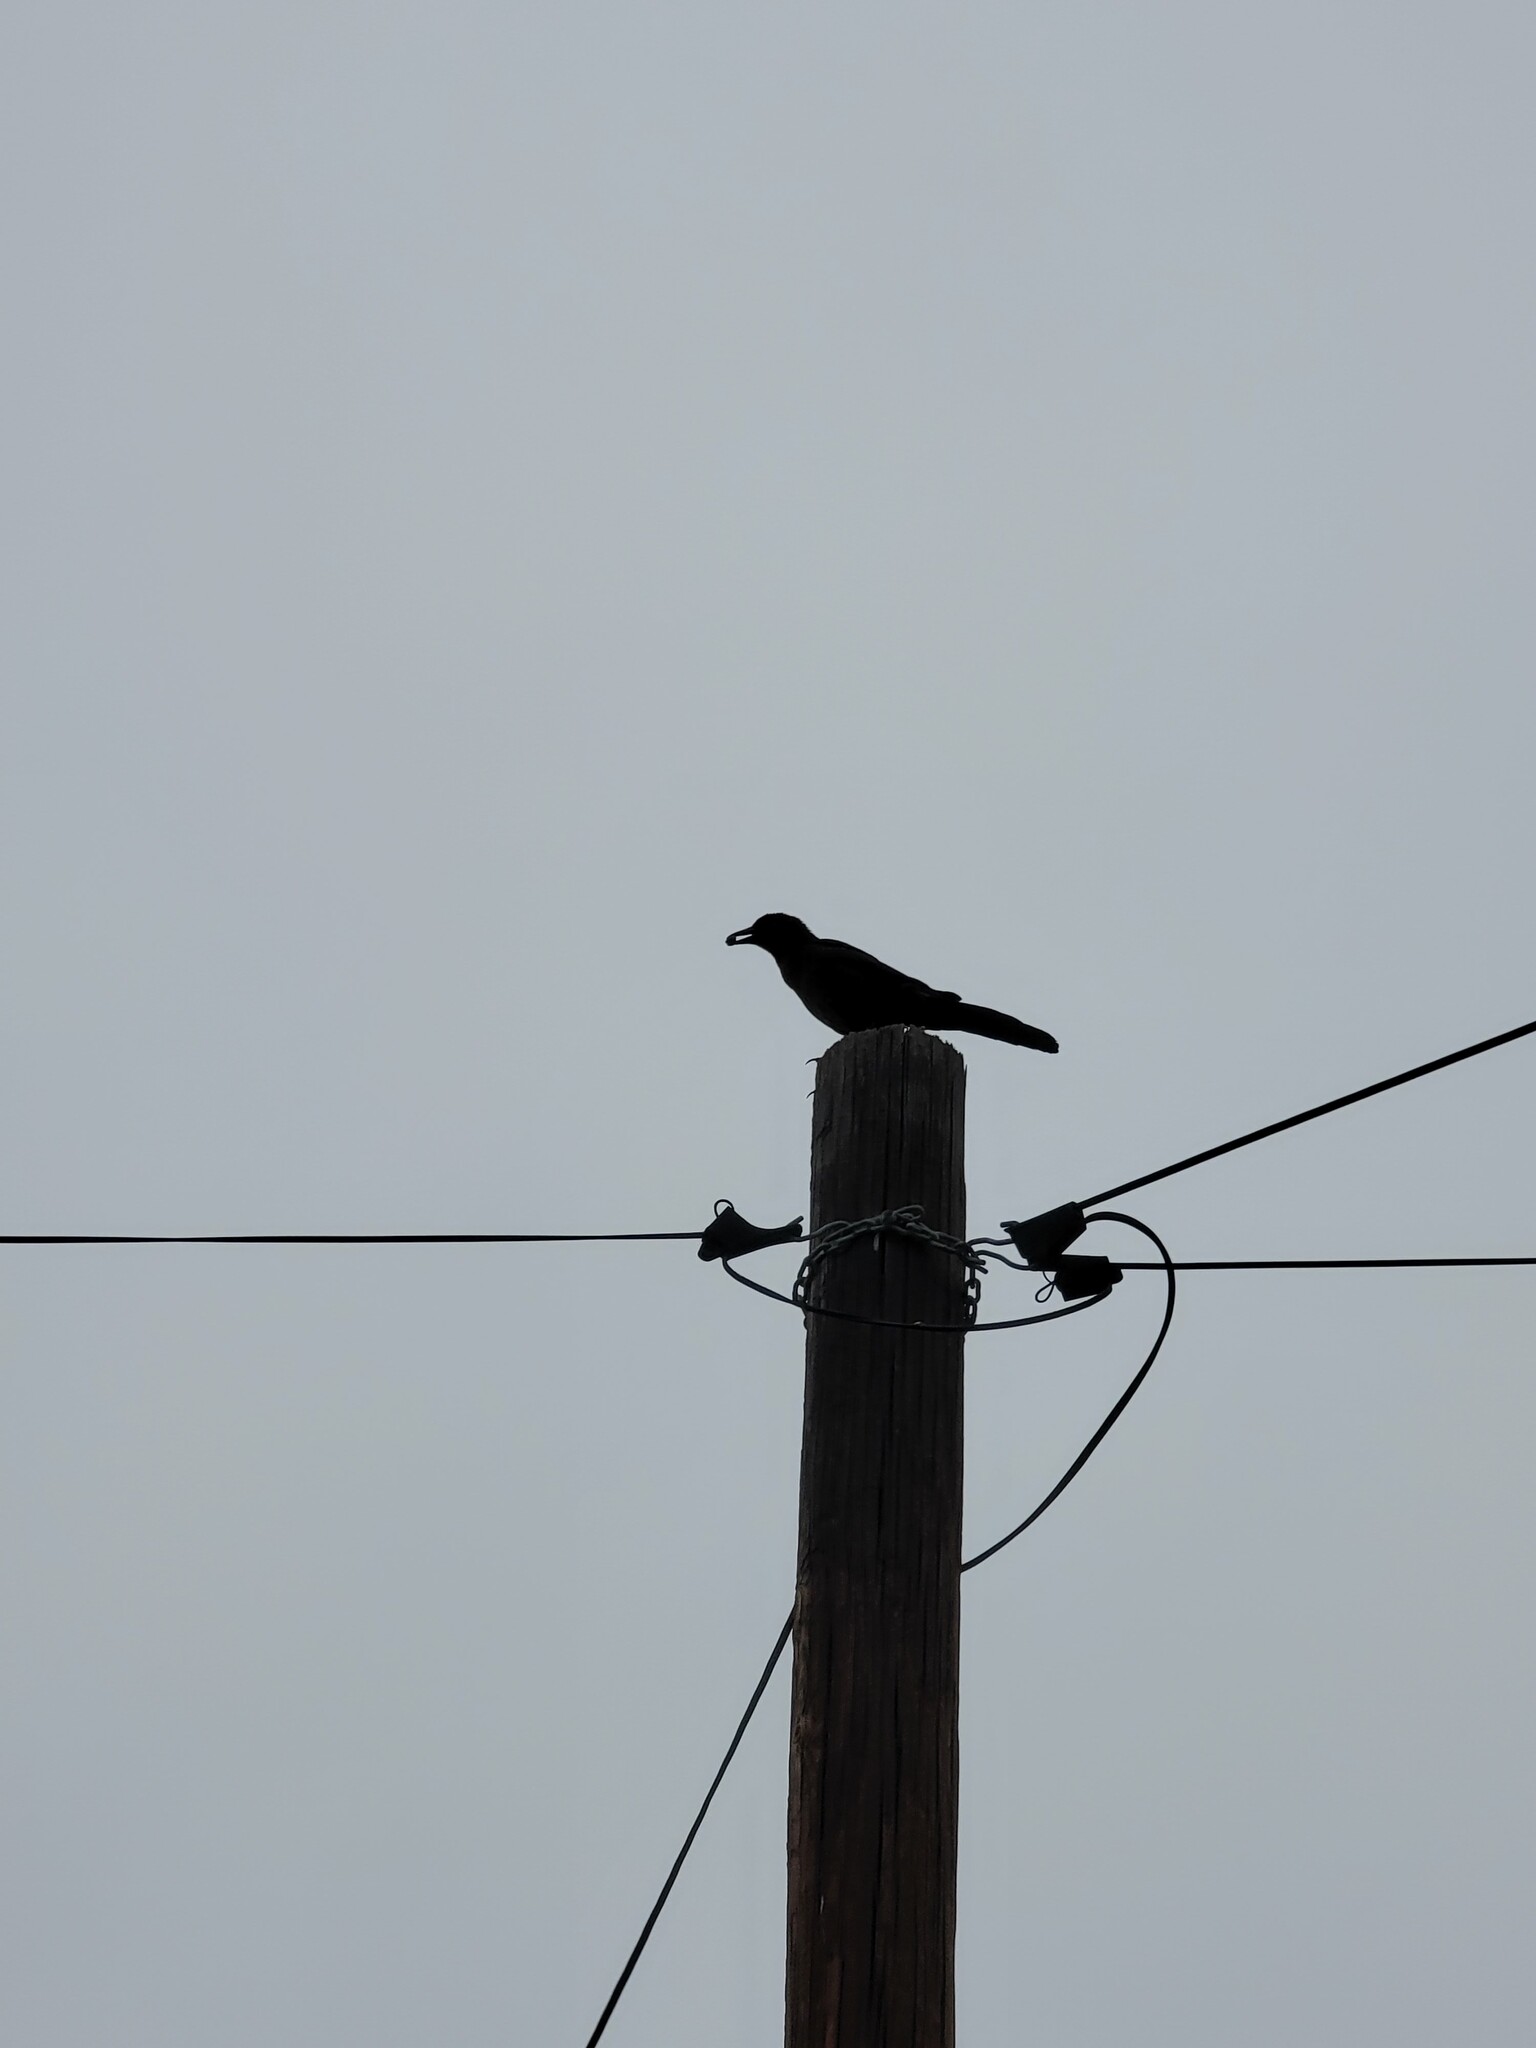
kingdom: Animalia
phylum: Chordata
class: Aves
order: Passeriformes
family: Icteridae
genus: Quiscalus
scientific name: Quiscalus mexicanus
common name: Great-tailed grackle
